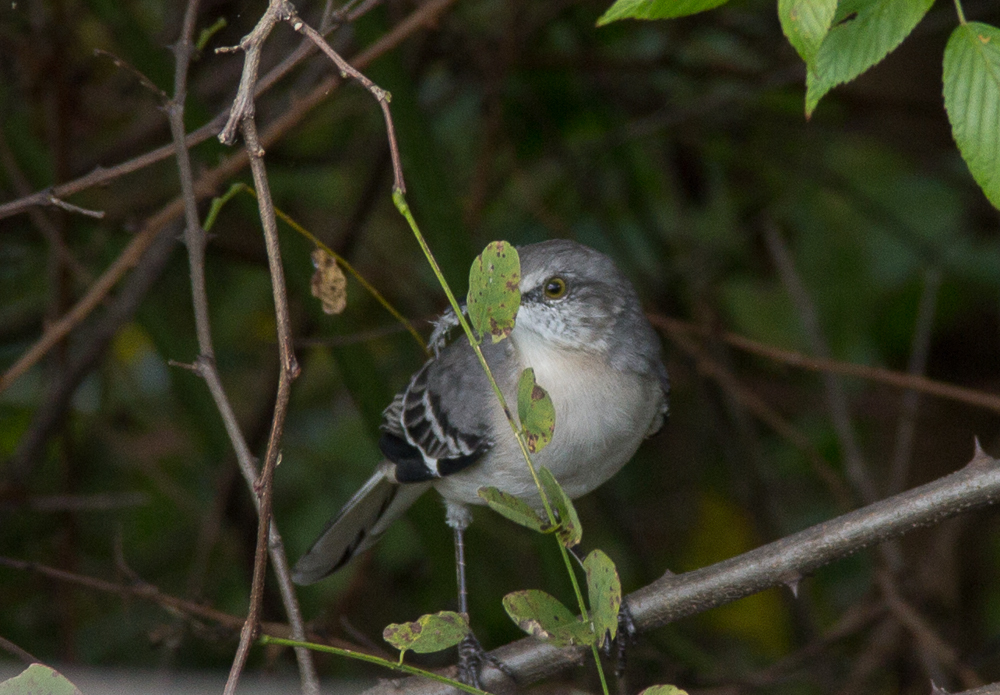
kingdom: Animalia
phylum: Chordata
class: Aves
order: Passeriformes
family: Mimidae
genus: Mimus
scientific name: Mimus polyglottos
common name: Northern mockingbird
